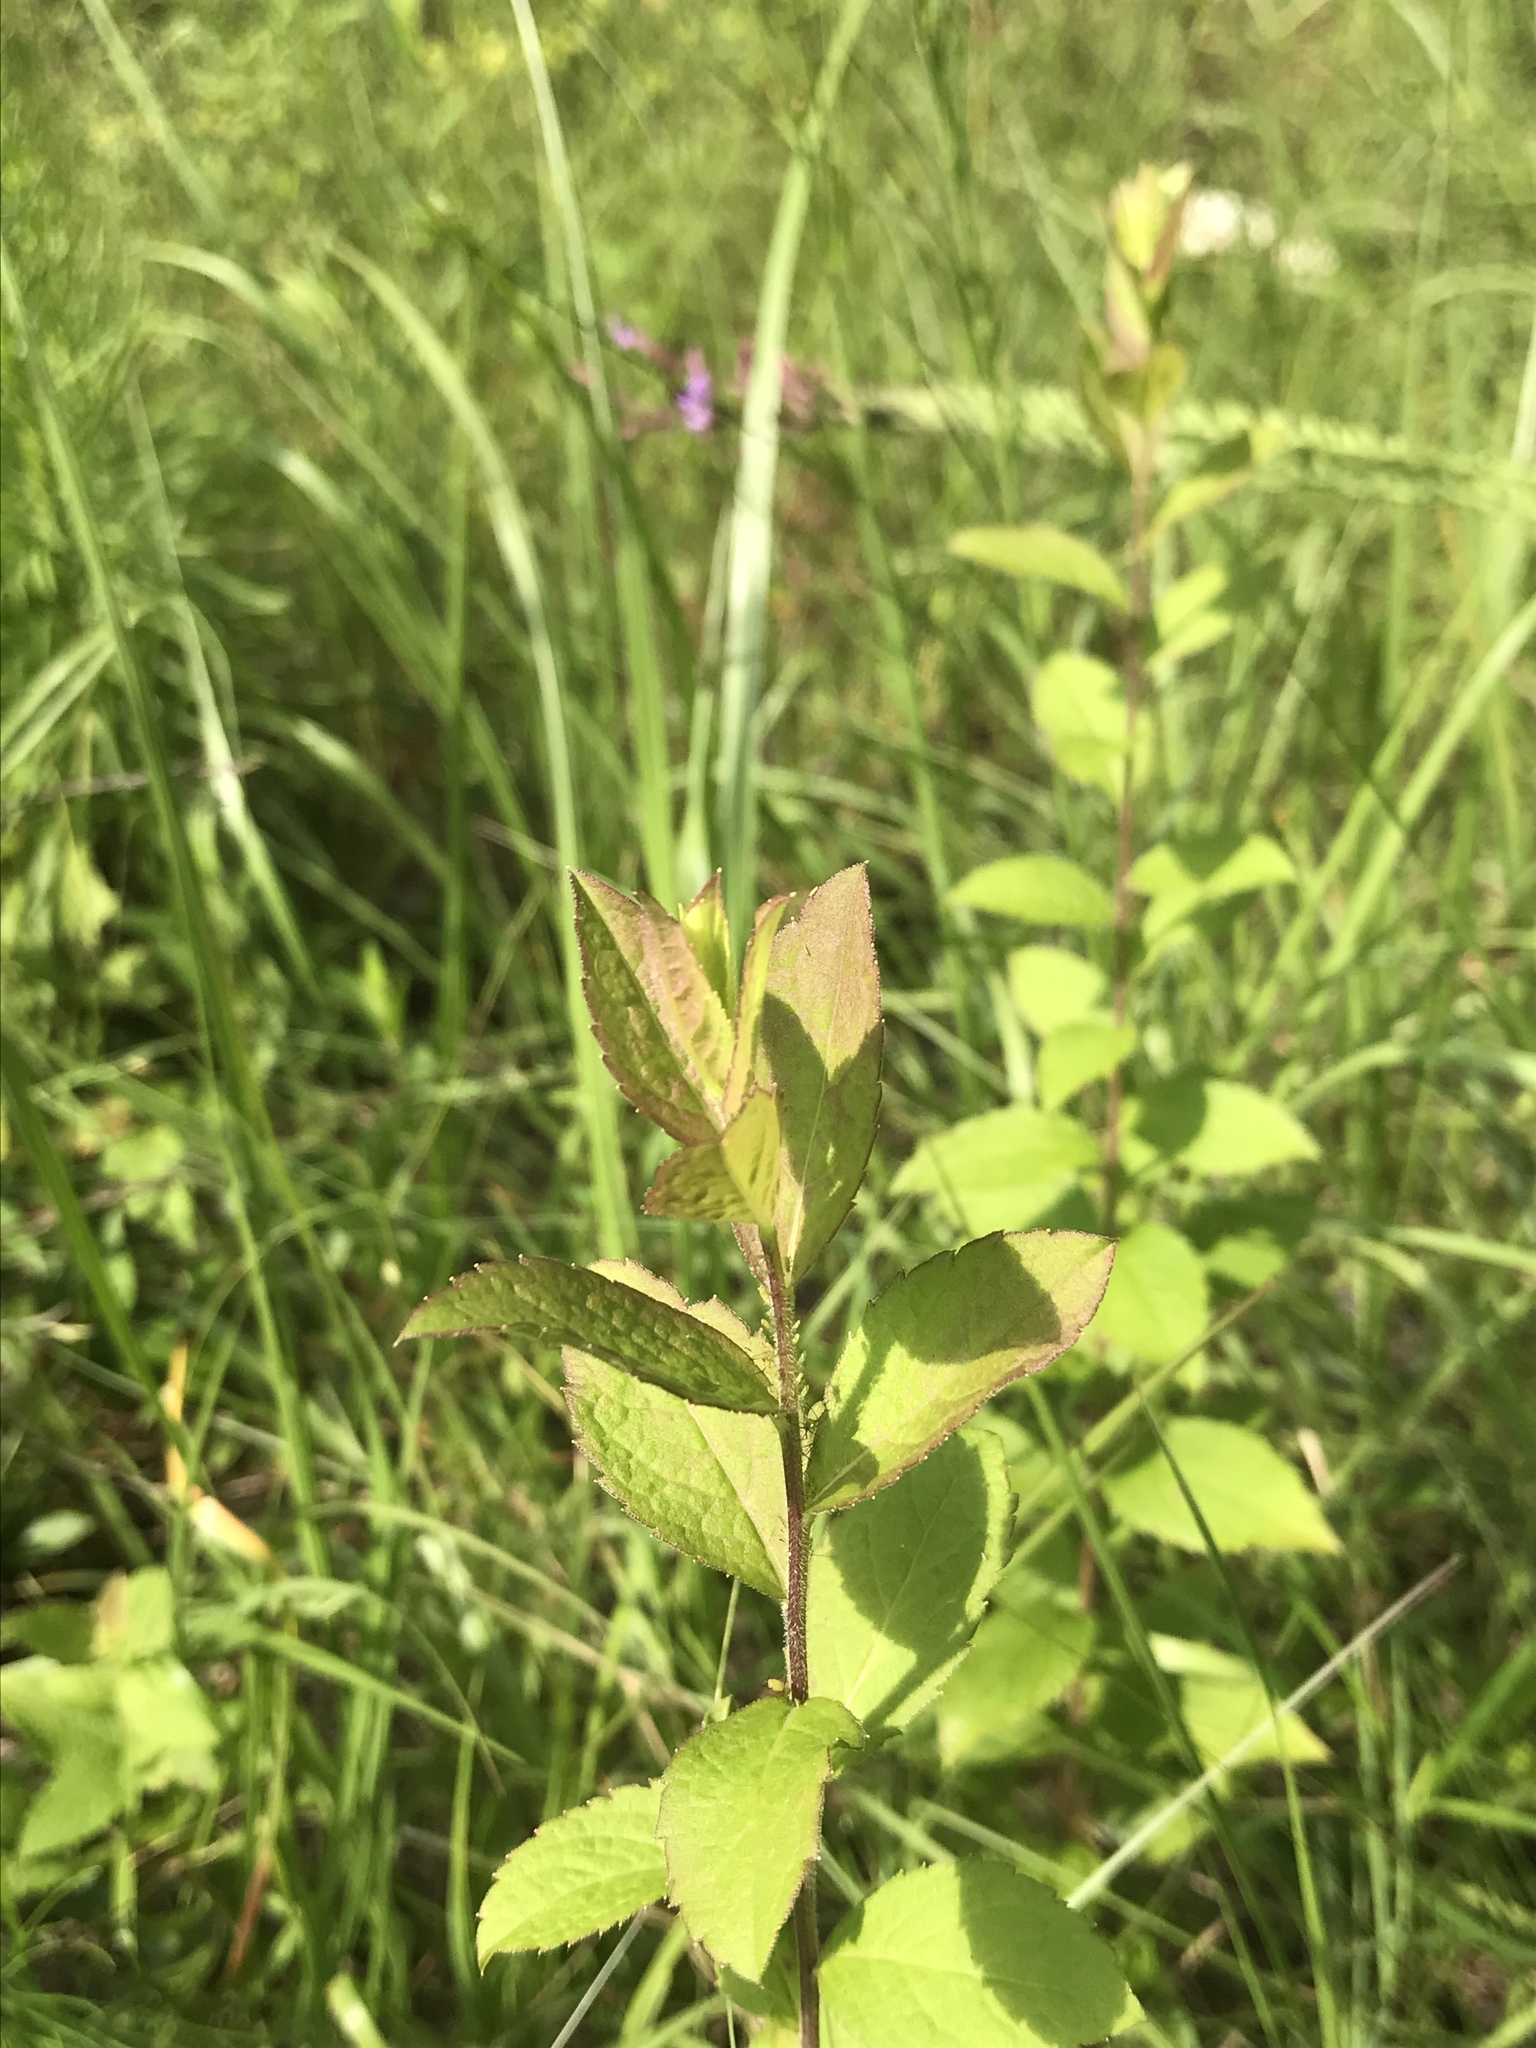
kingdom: Plantae
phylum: Tracheophyta
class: Magnoliopsida
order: Asterales
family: Asteraceae
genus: Solidago
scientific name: Solidago rugosa
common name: Rough-stemmed goldenrod
